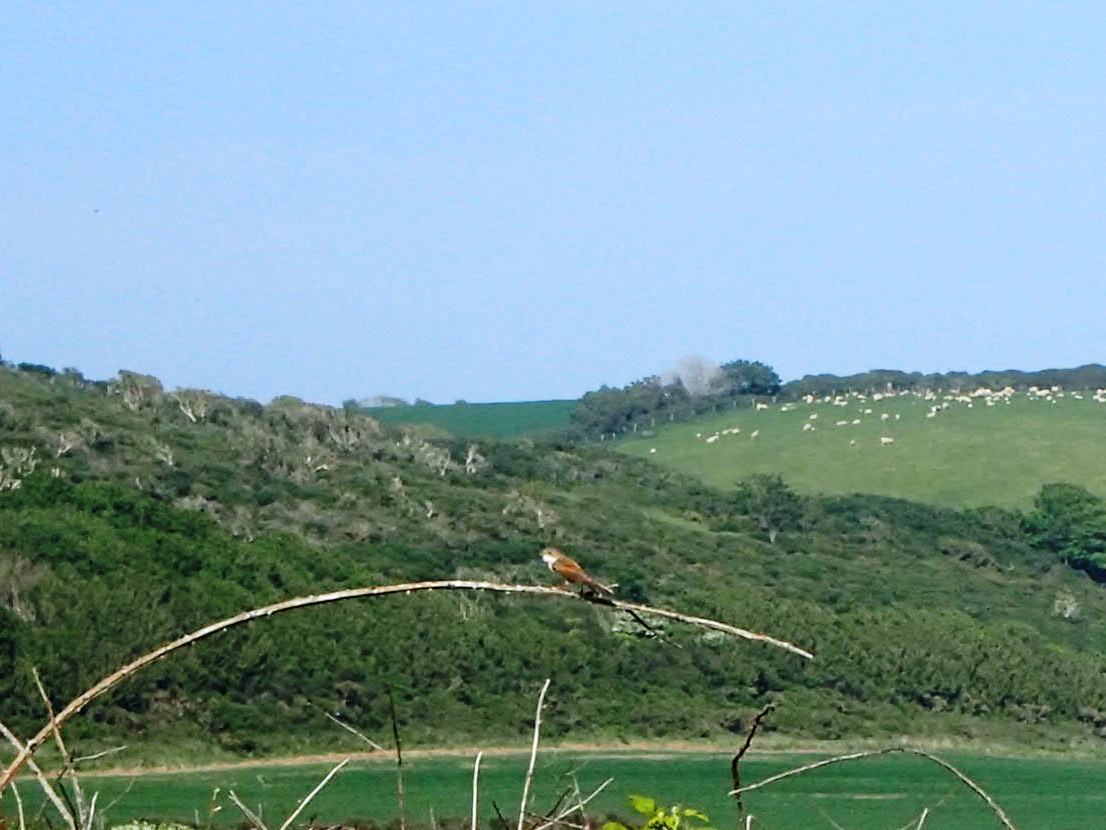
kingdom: Animalia
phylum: Chordata
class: Aves
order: Passeriformes
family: Sylviidae
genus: Sylvia
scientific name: Sylvia communis
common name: Common whitethroat
